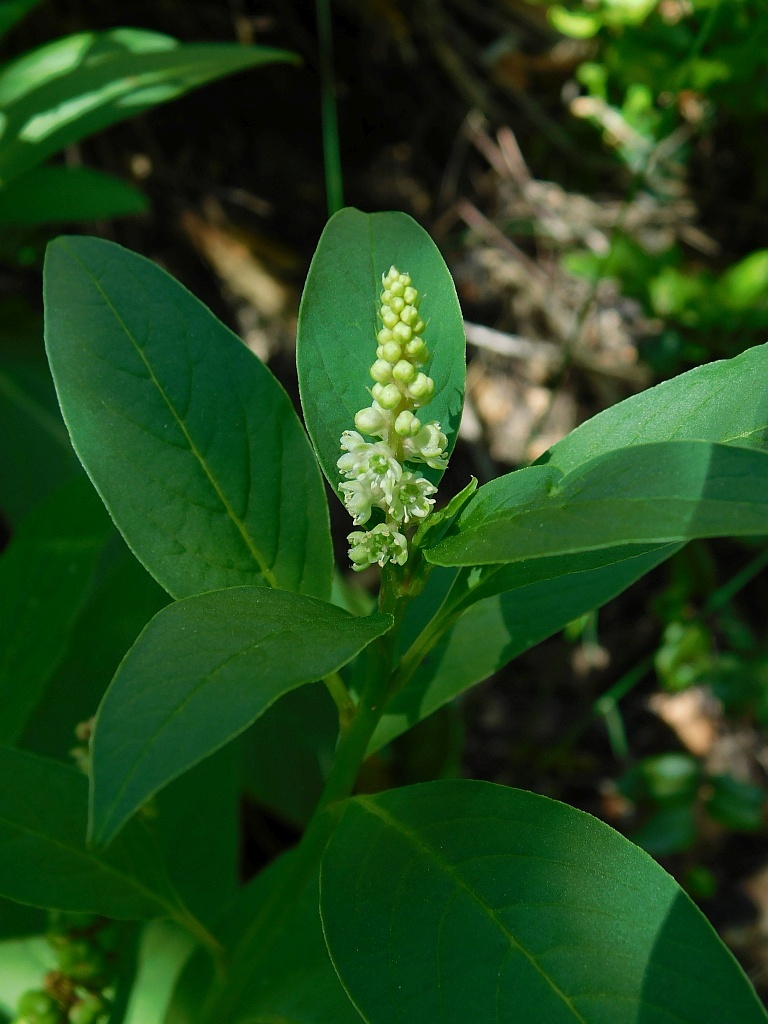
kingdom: Plantae
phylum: Tracheophyta
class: Magnoliopsida
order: Caryophyllales
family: Phytolaccaceae
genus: Phytolacca
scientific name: Phytolacca icosandra
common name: Button pokeweed
